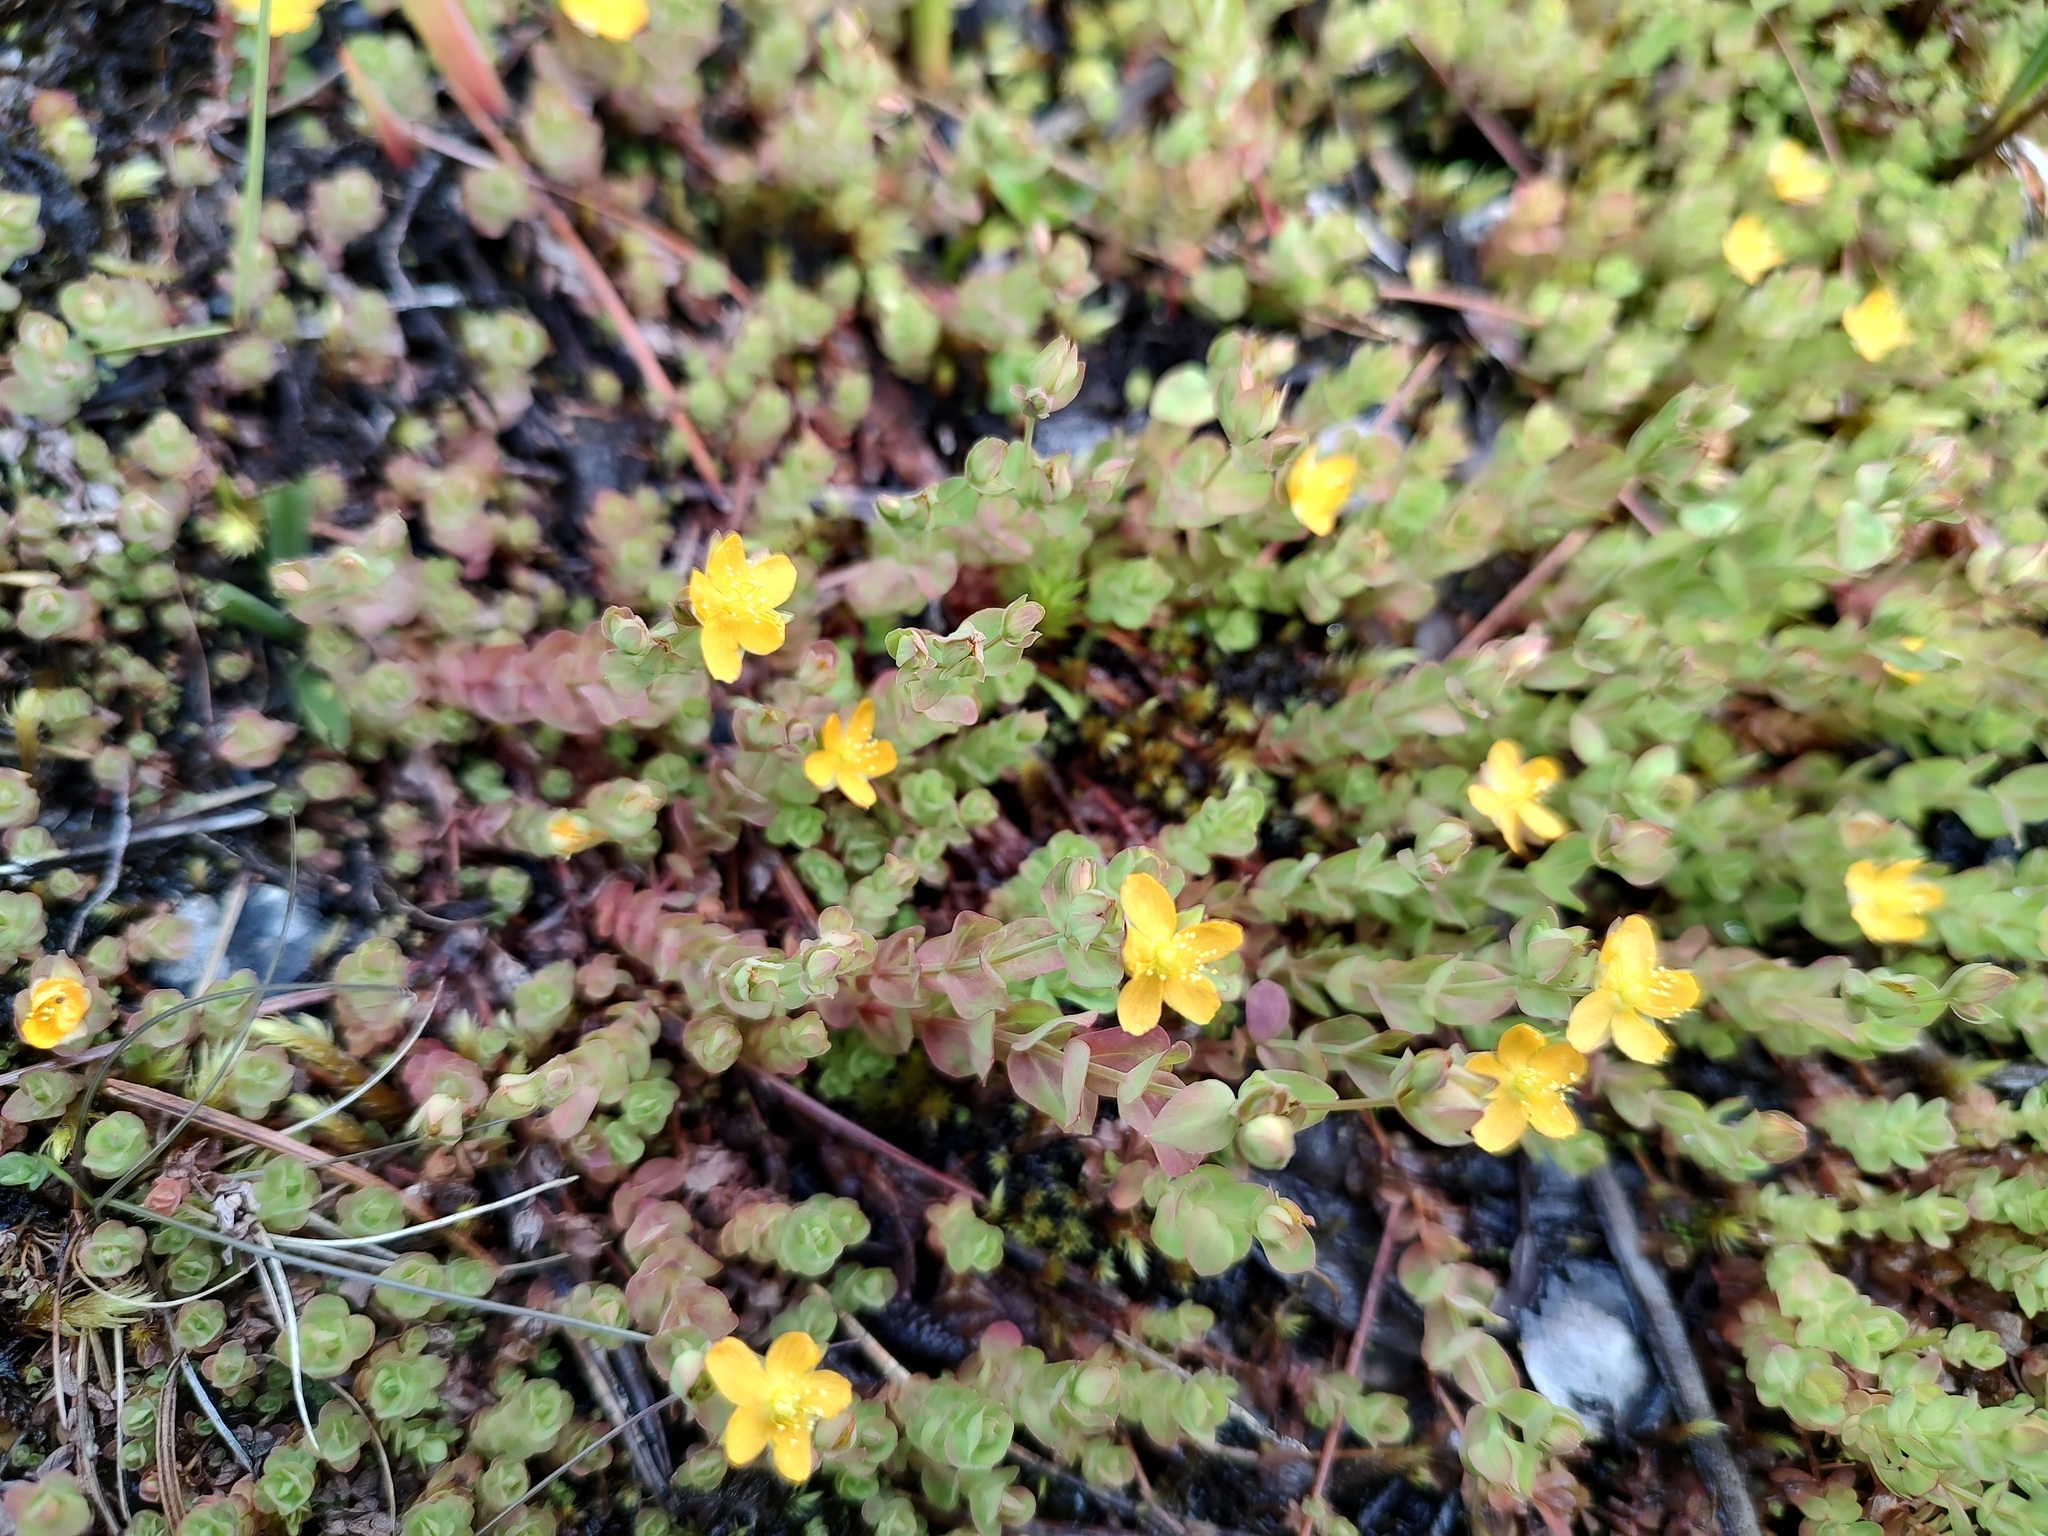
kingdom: Plantae
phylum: Tracheophyta
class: Magnoliopsida
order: Malpighiales
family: Hypericaceae
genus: Hypericum
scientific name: Hypericum anagalloides
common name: Bog st. john's-wort
